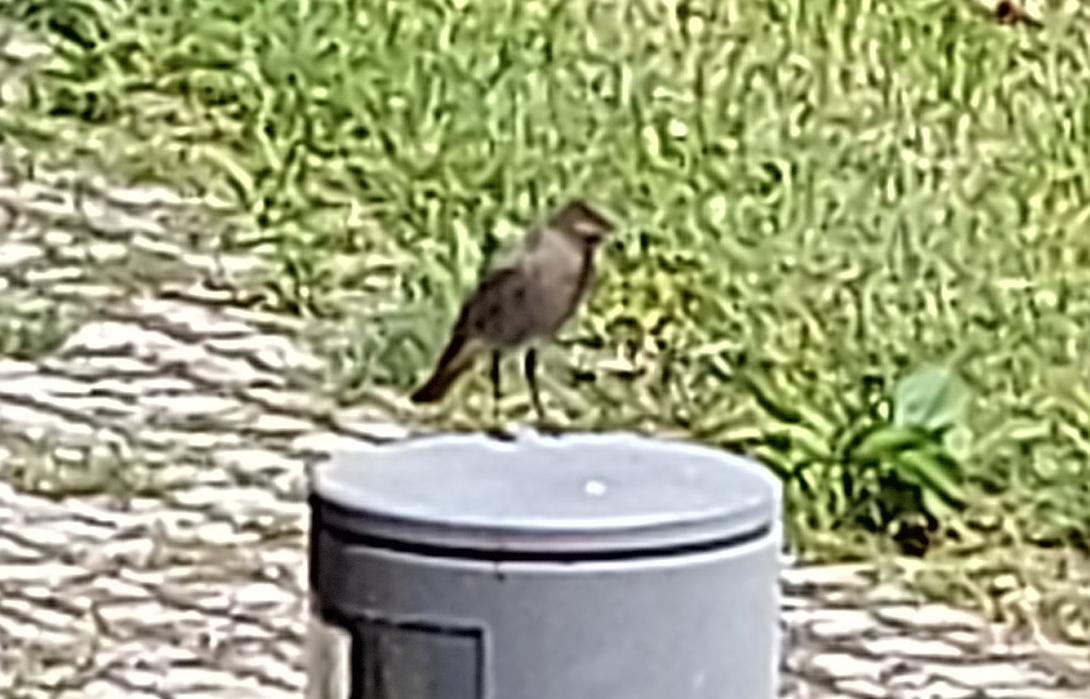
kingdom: Animalia
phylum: Chordata
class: Aves
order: Passeriformes
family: Muscicapidae
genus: Phoenicurus
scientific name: Phoenicurus ochruros
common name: Black redstart
